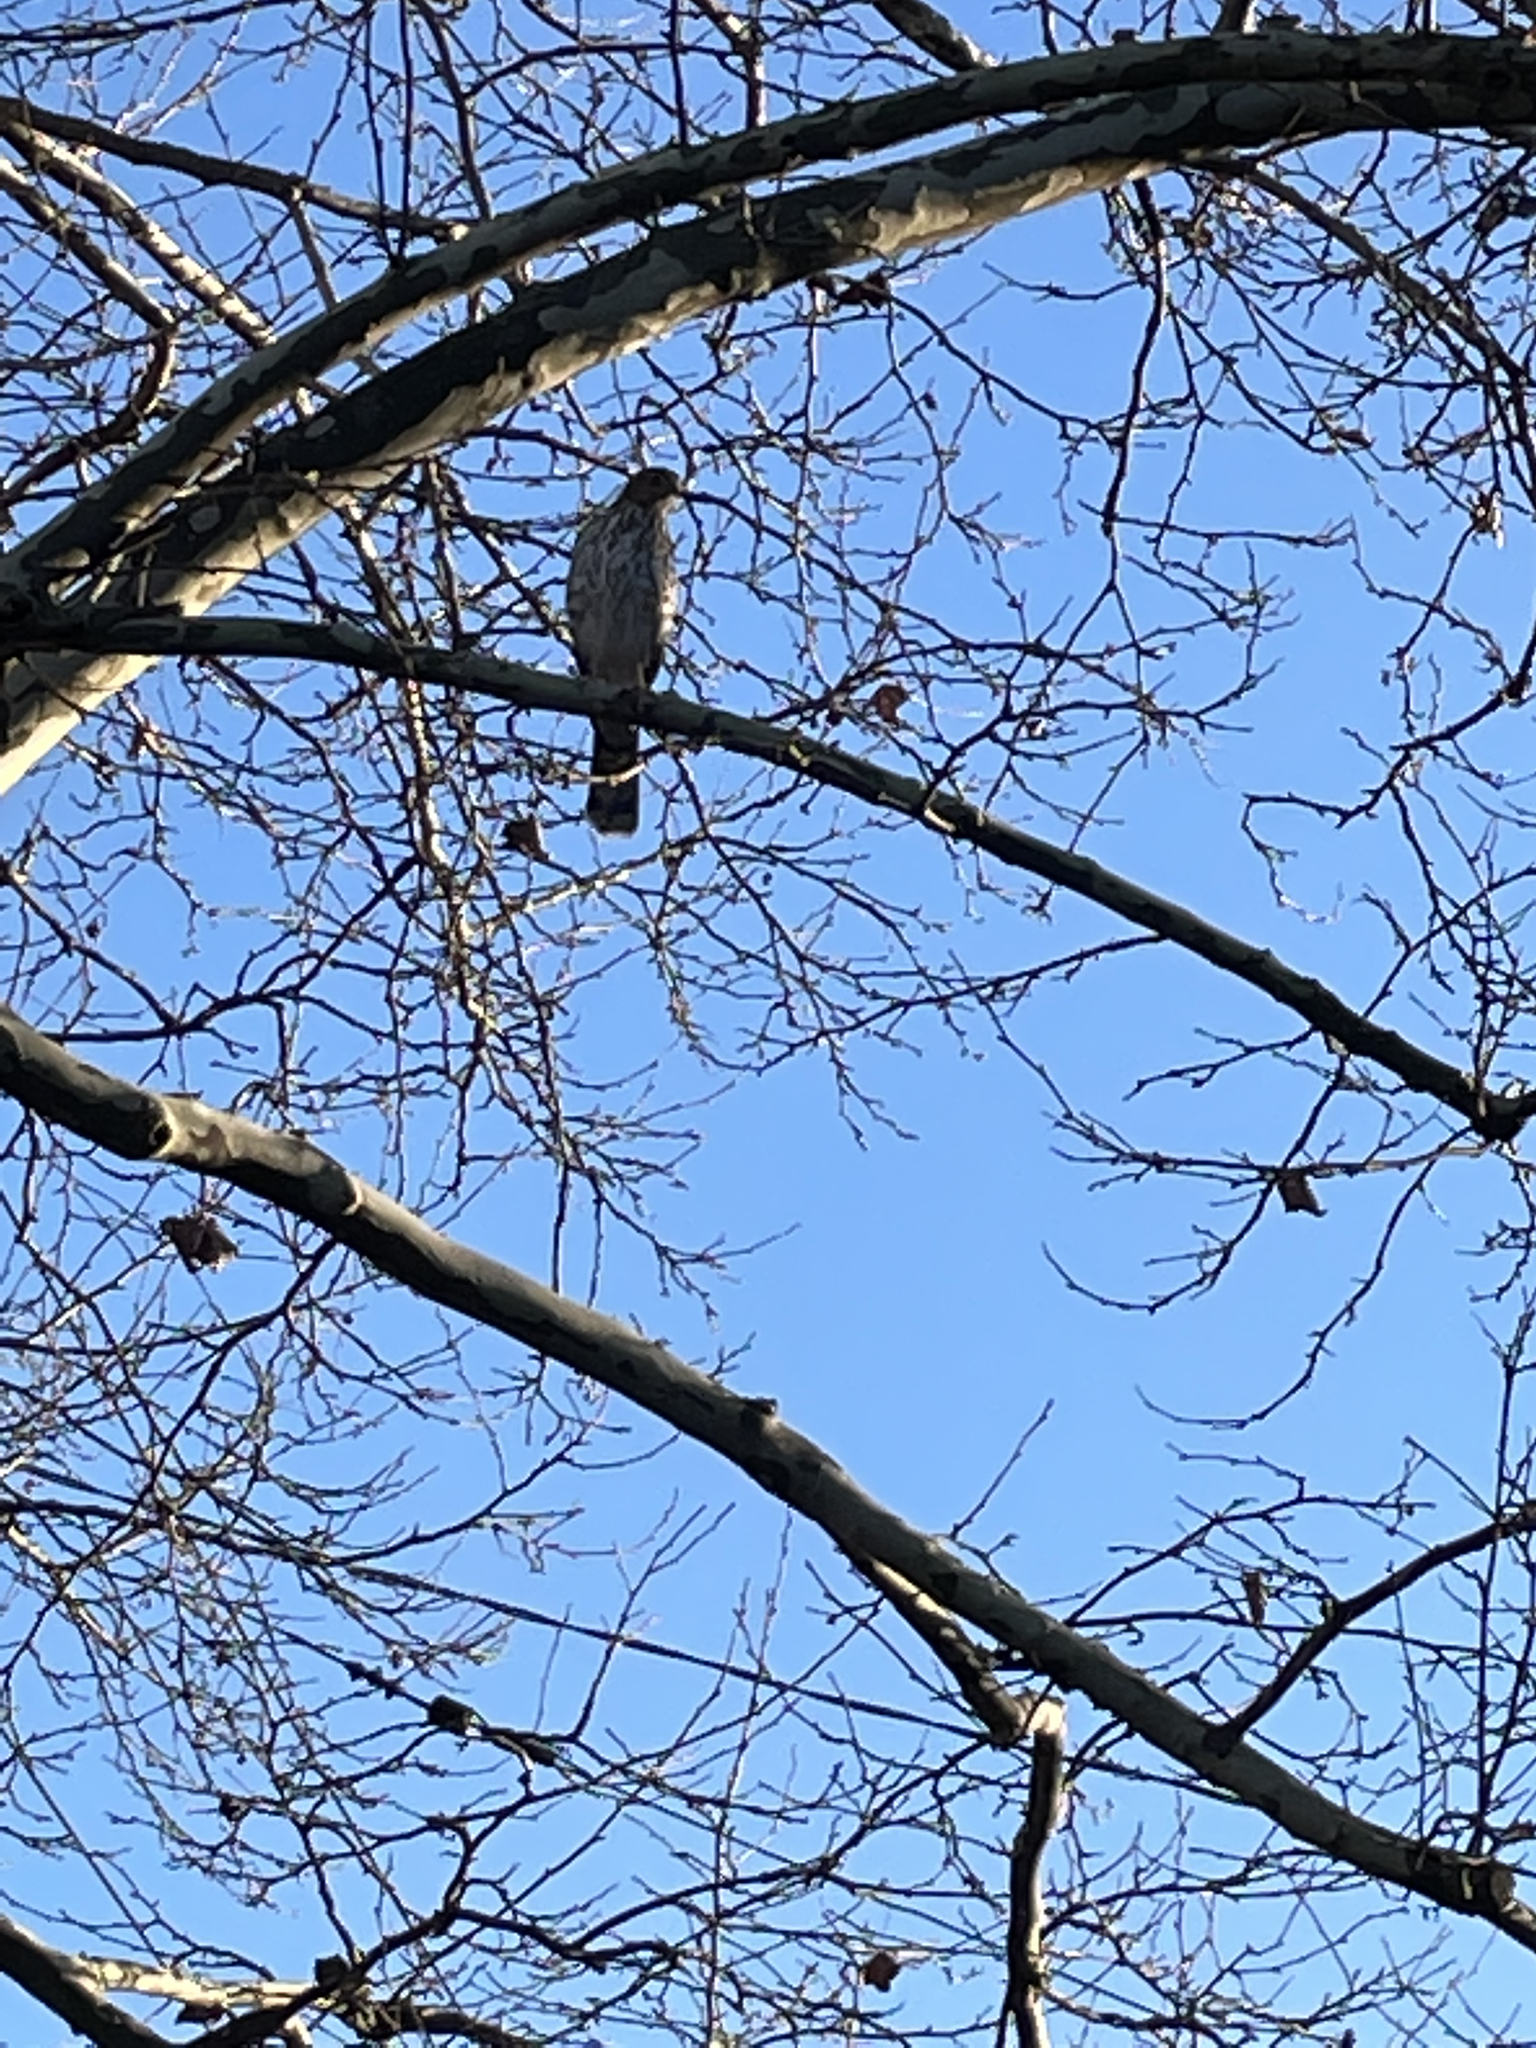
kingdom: Animalia
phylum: Chordata
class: Aves
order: Accipitriformes
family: Accipitridae
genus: Accipiter
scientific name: Accipiter cooperii
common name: Cooper's hawk
